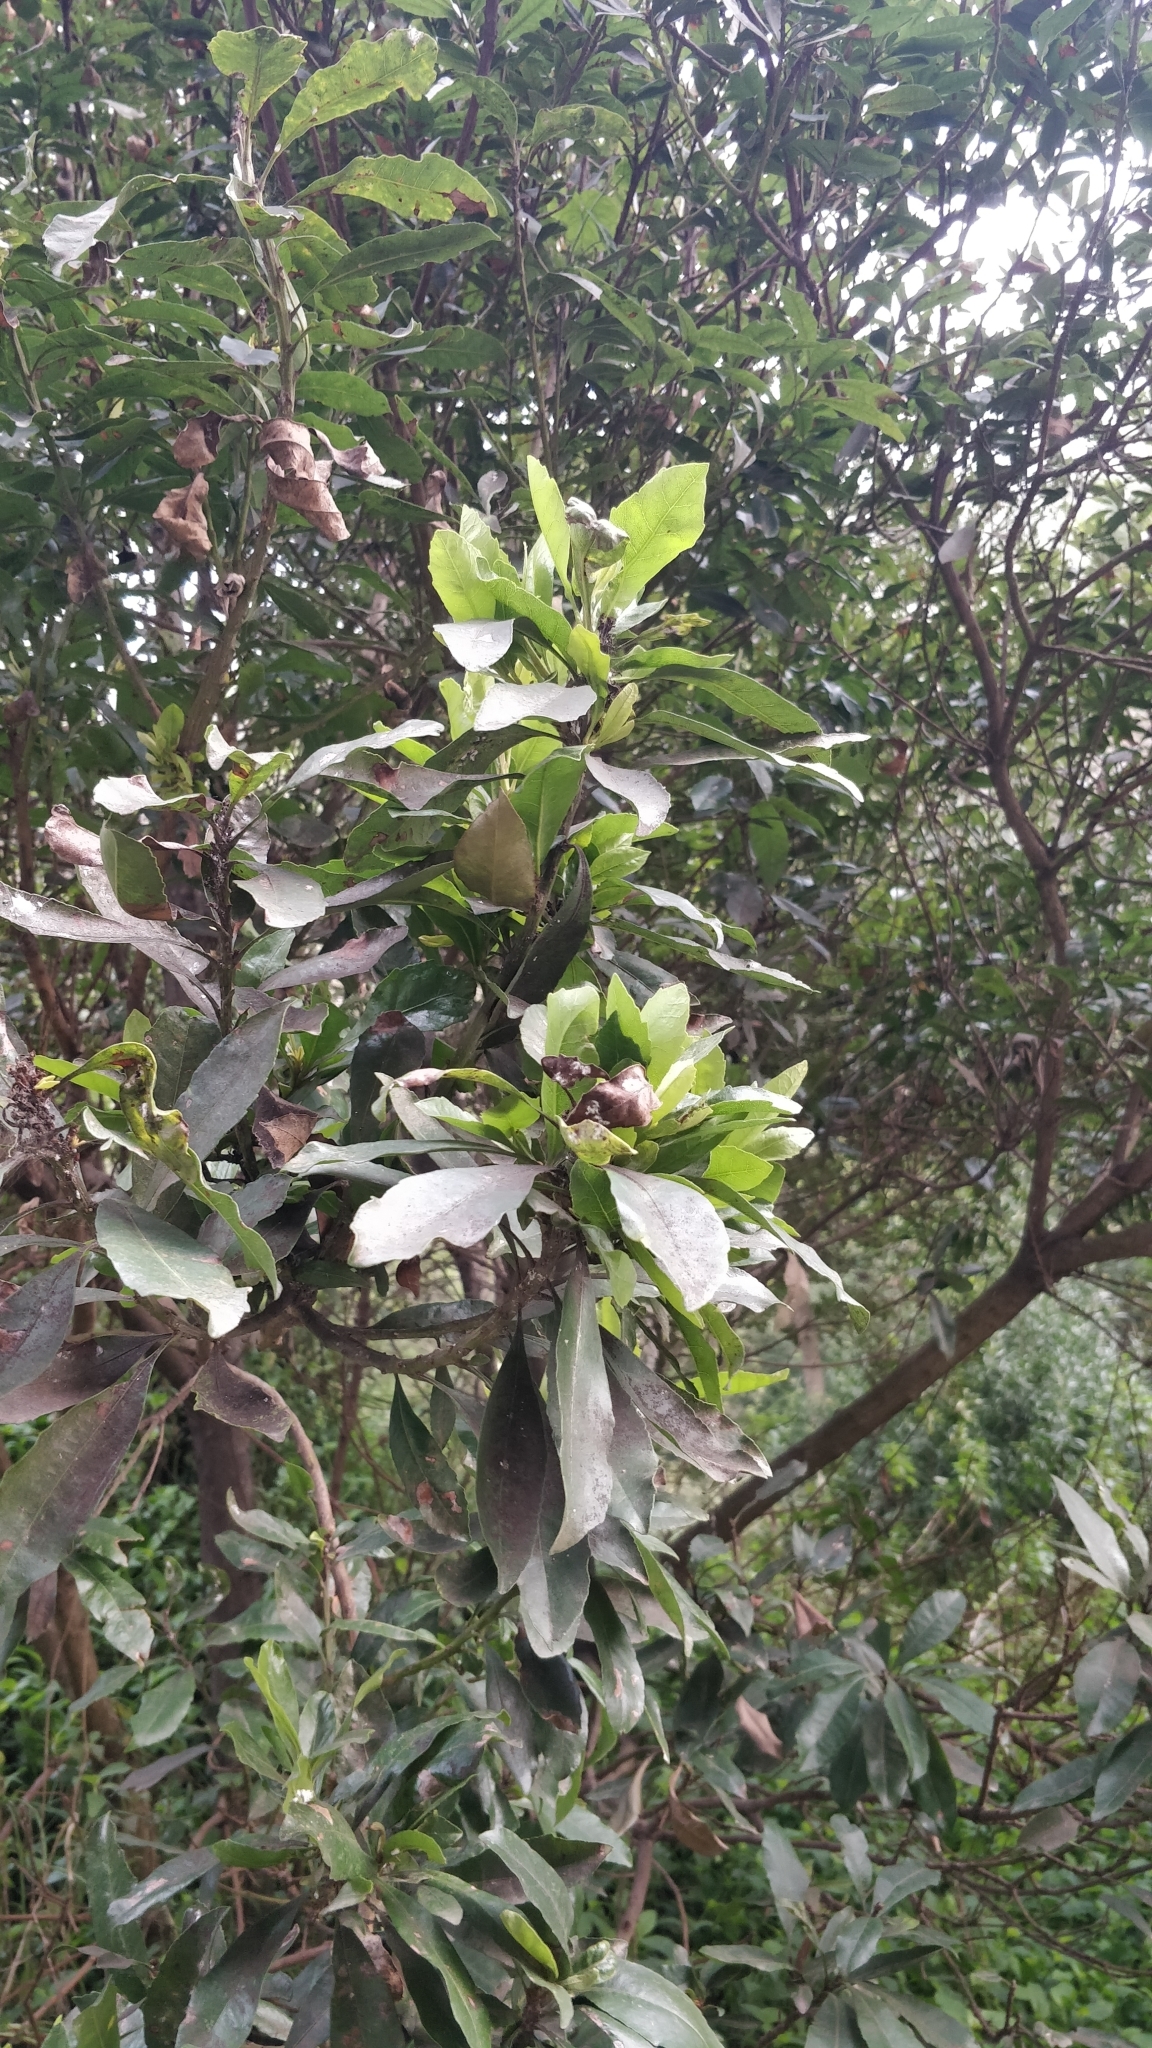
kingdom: Plantae
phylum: Tracheophyta
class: Magnoliopsida
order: Fagales
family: Myricaceae
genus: Morella
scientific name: Morella faya
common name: Firetree
